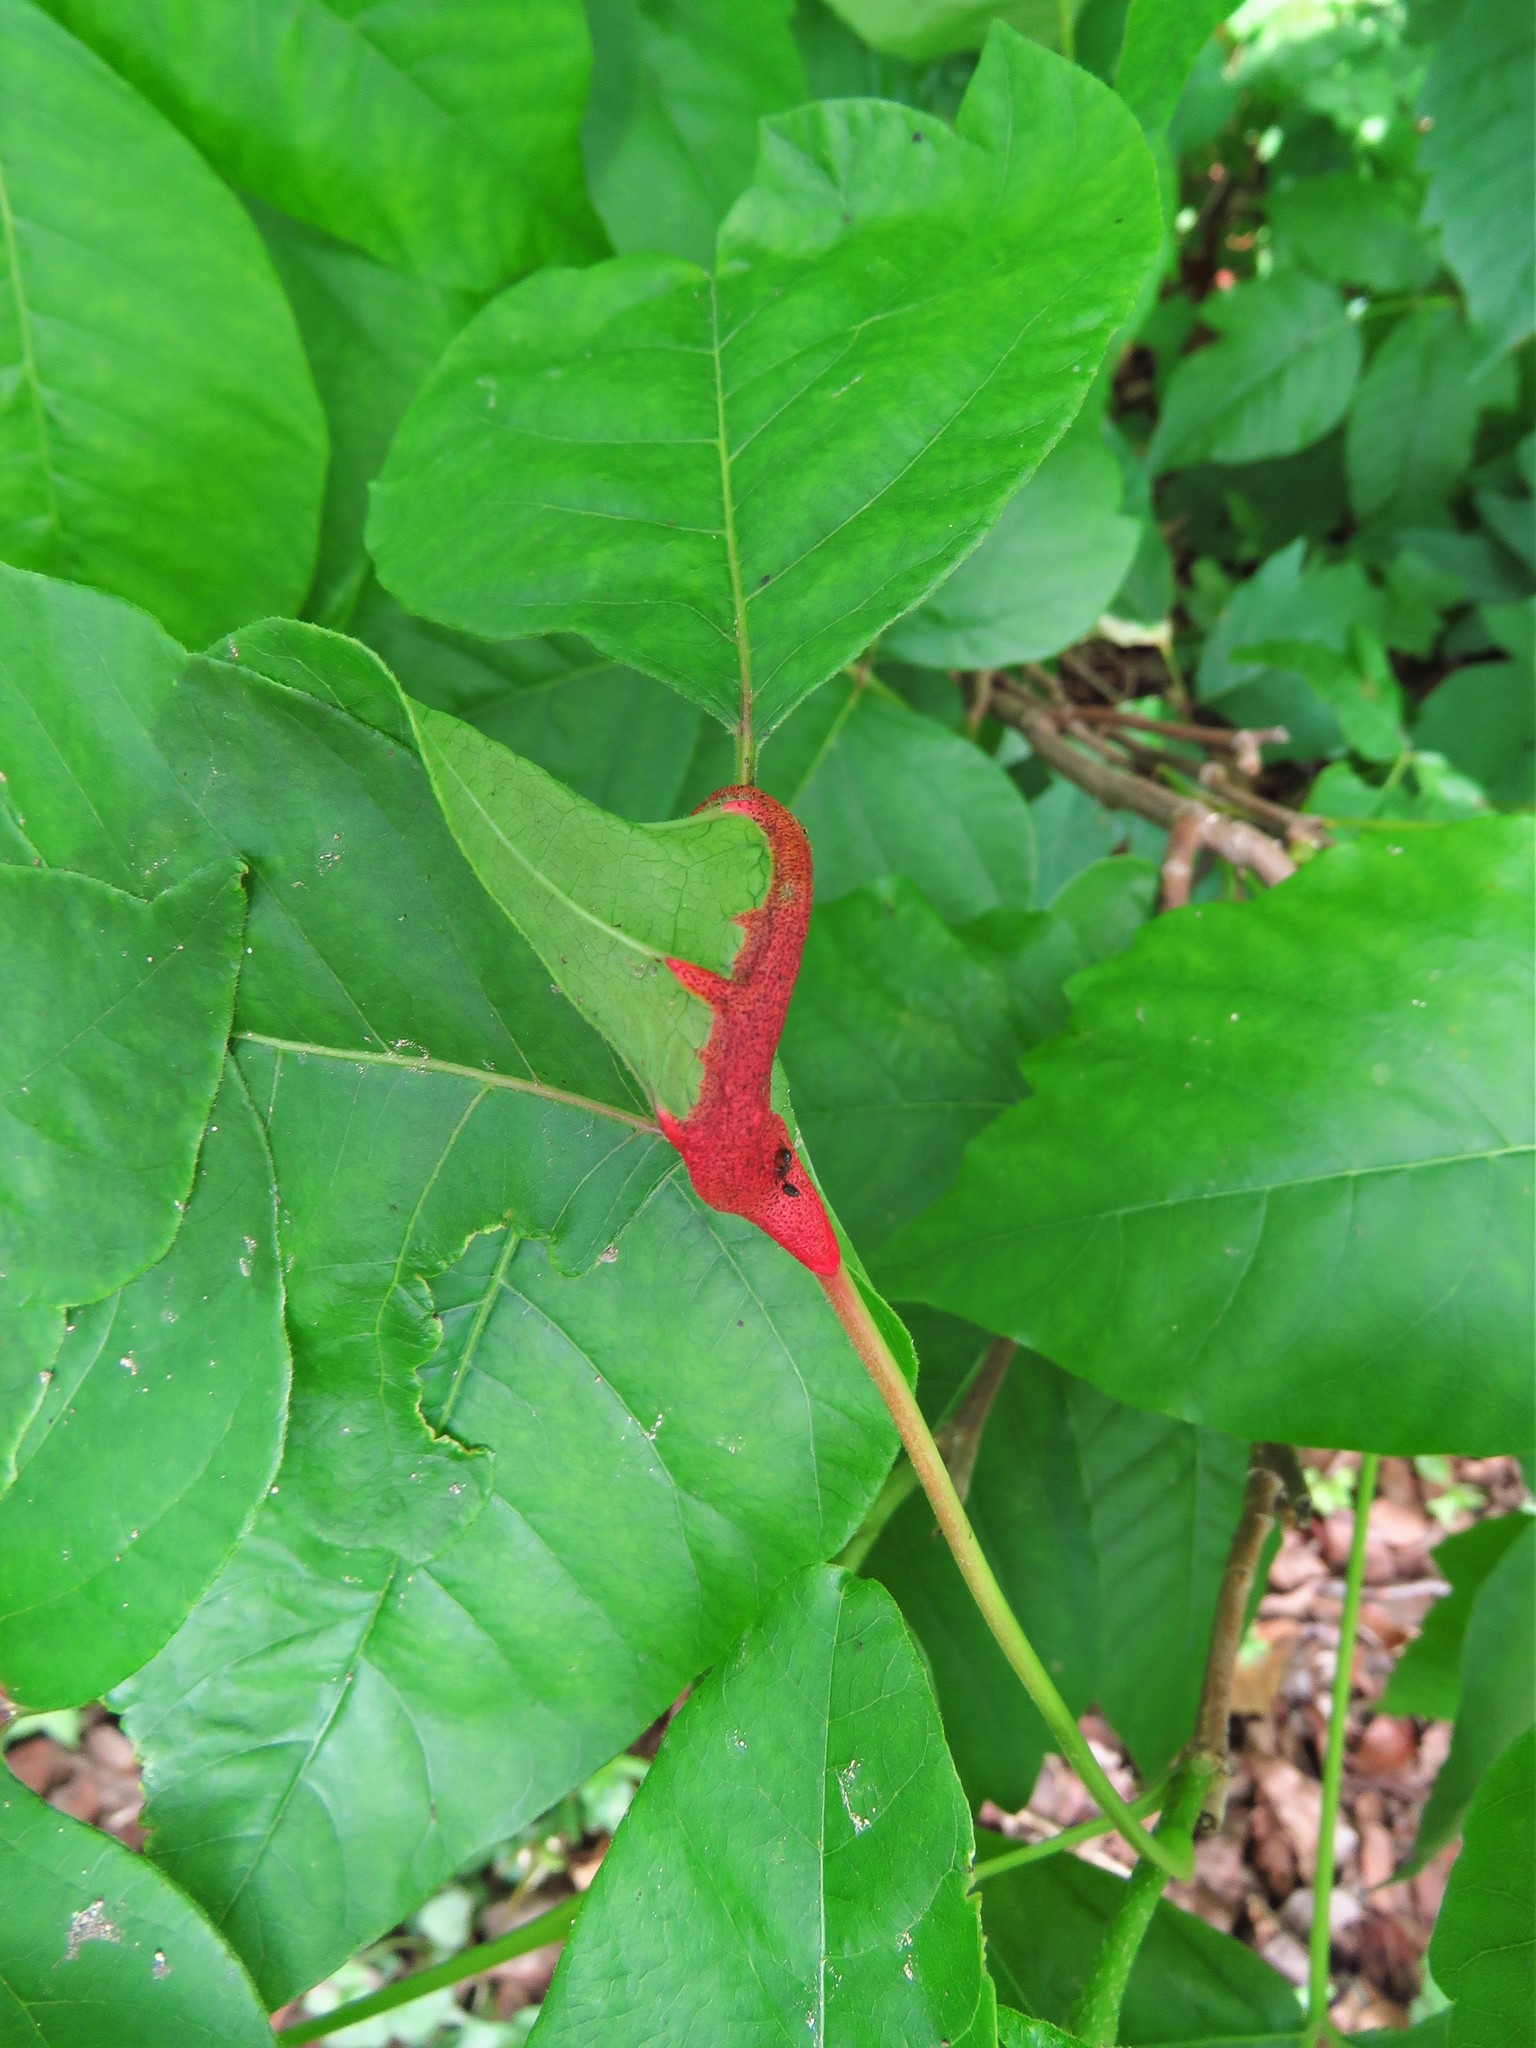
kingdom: Fungi
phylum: Basidiomycota
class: Pucciniomycetes
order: Pucciniales
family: Pileolariaceae
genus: Pileolaria
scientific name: Pileolaria brevipes
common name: Poison ivy rust
